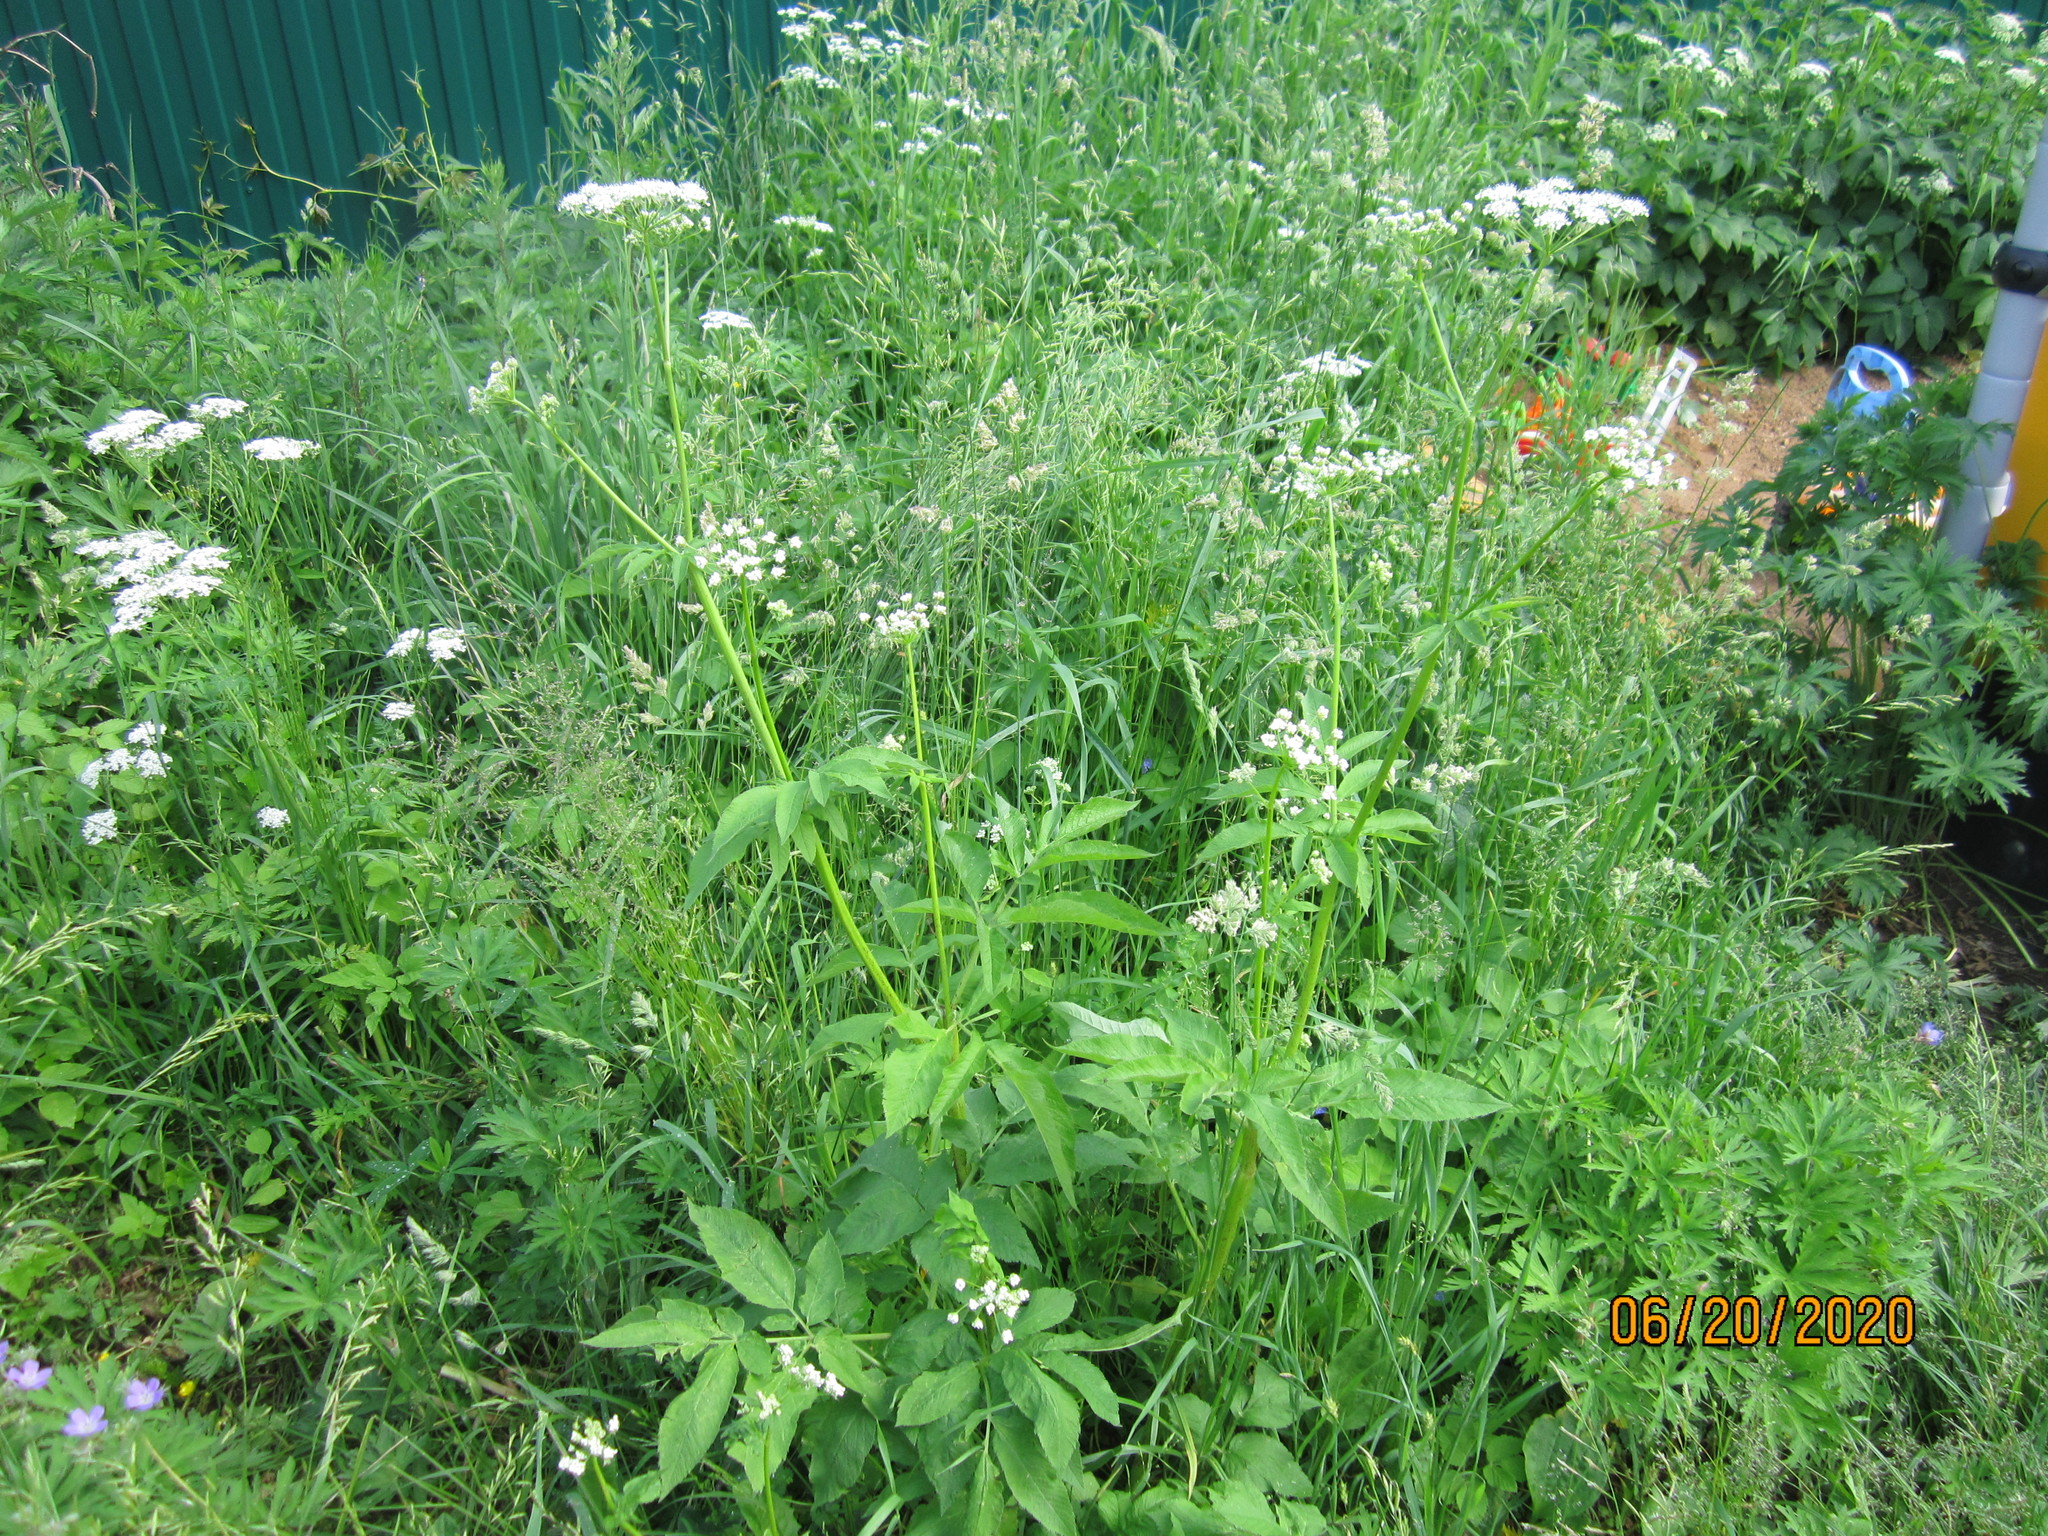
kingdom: Plantae
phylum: Tracheophyta
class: Magnoliopsida
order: Apiales
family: Apiaceae
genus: Aegopodium
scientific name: Aegopodium podagraria
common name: Ground-elder
